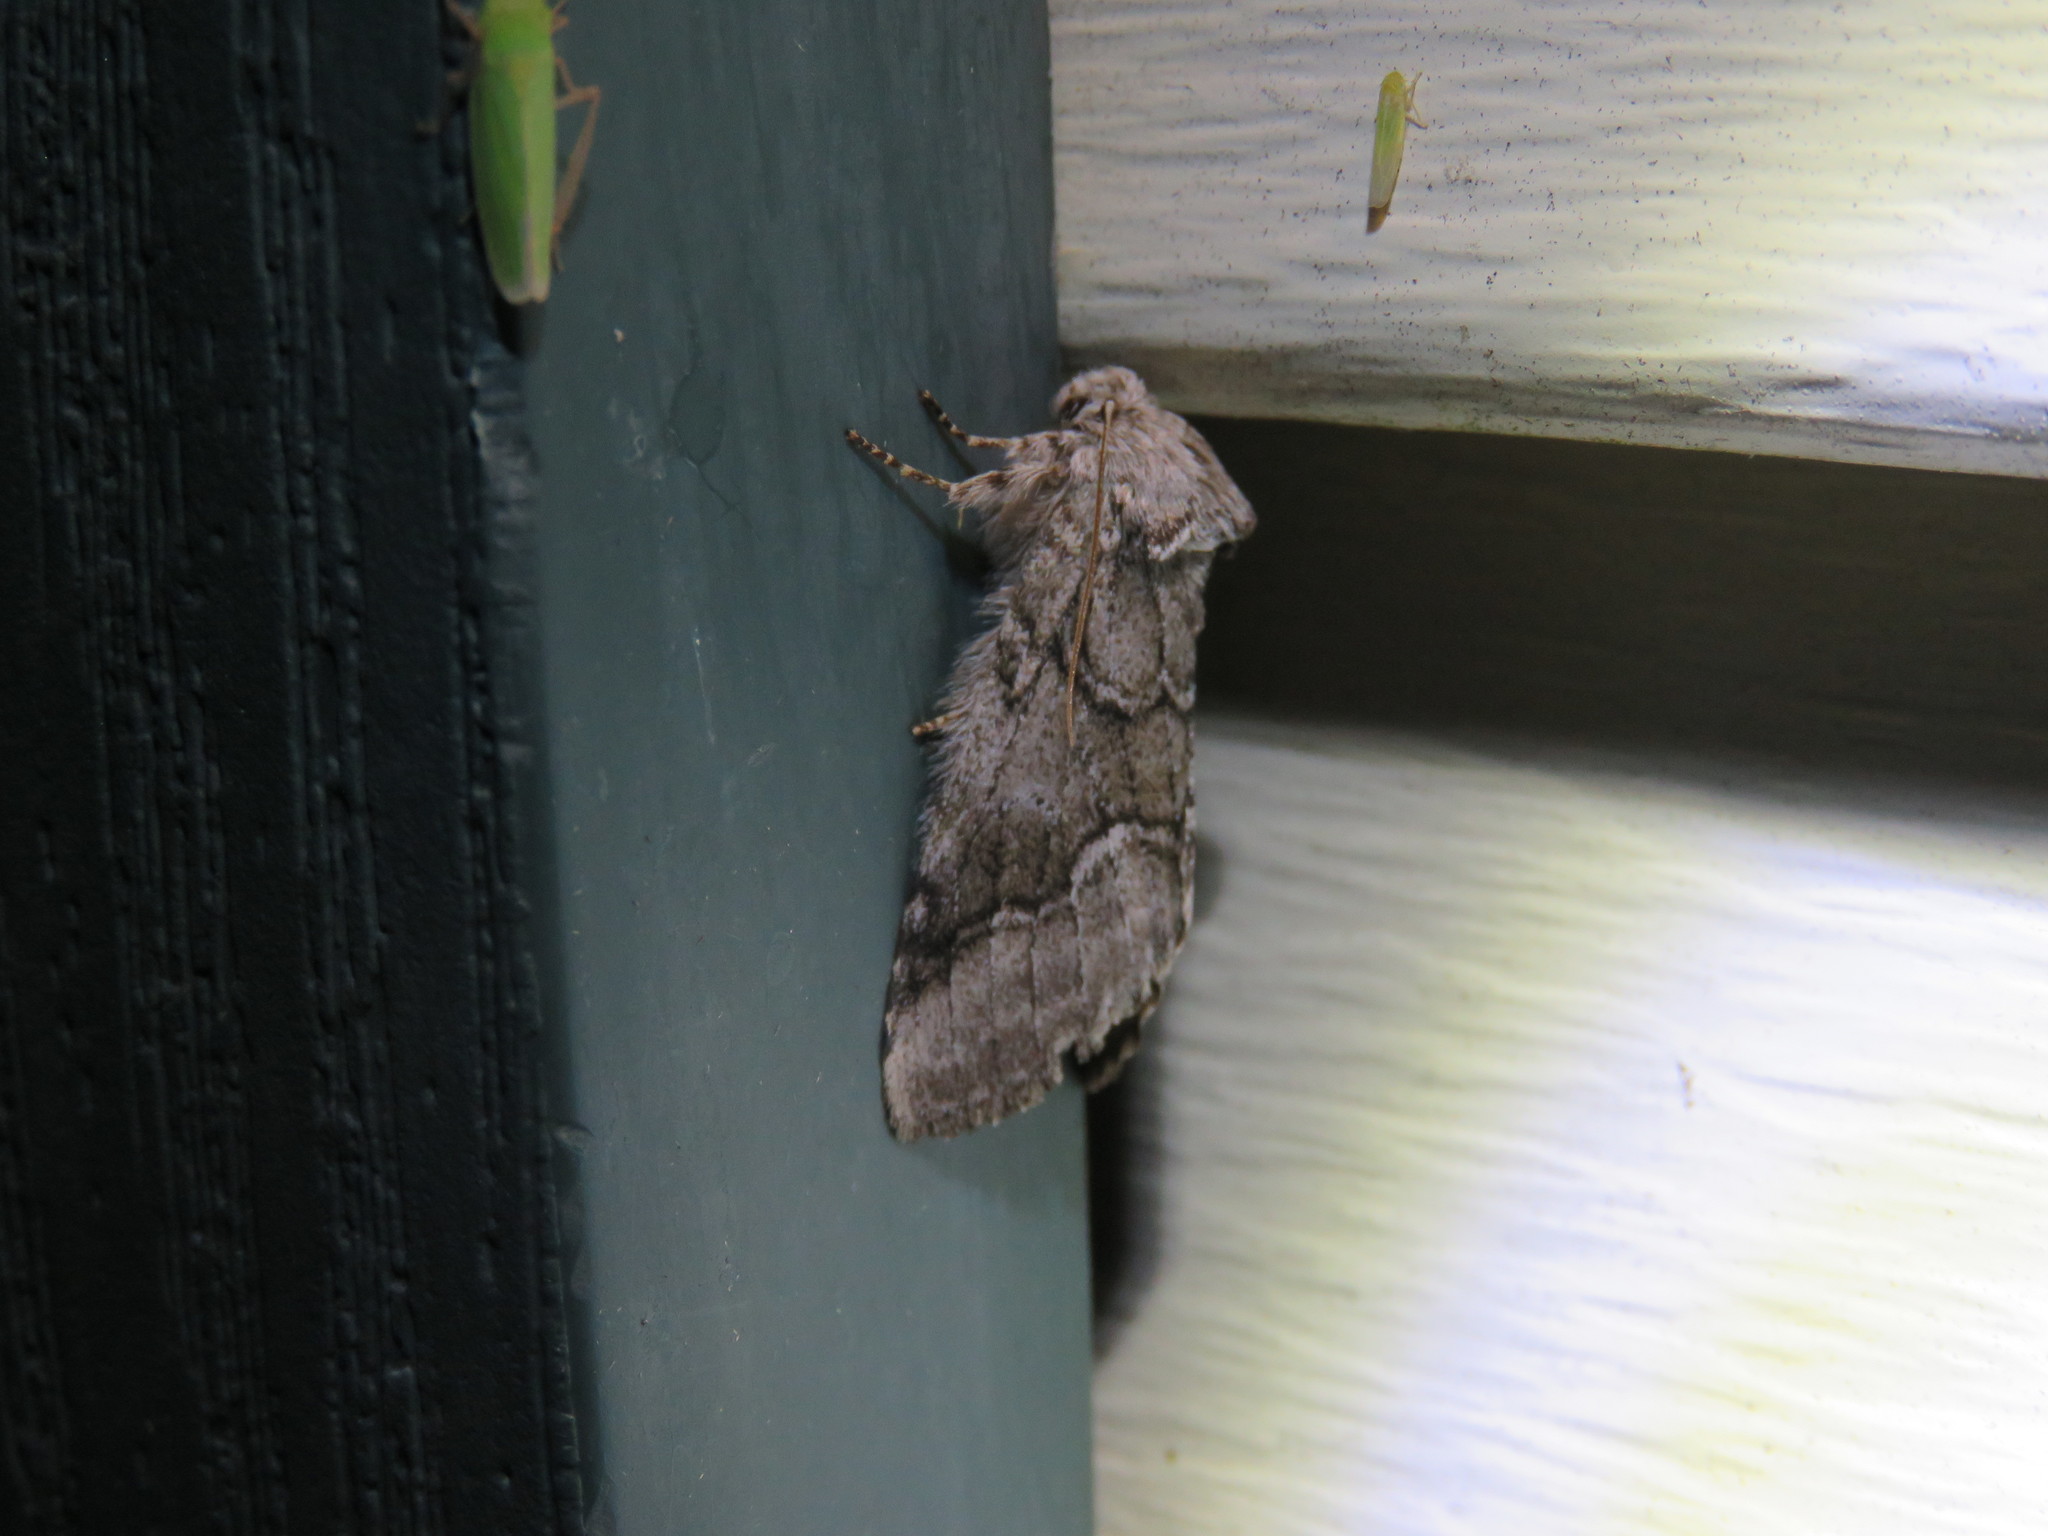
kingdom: Animalia
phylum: Arthropoda
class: Insecta
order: Lepidoptera
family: Notodontidae
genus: Lochmaeus
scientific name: Lochmaeus bilineata
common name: Double-lined prominent
